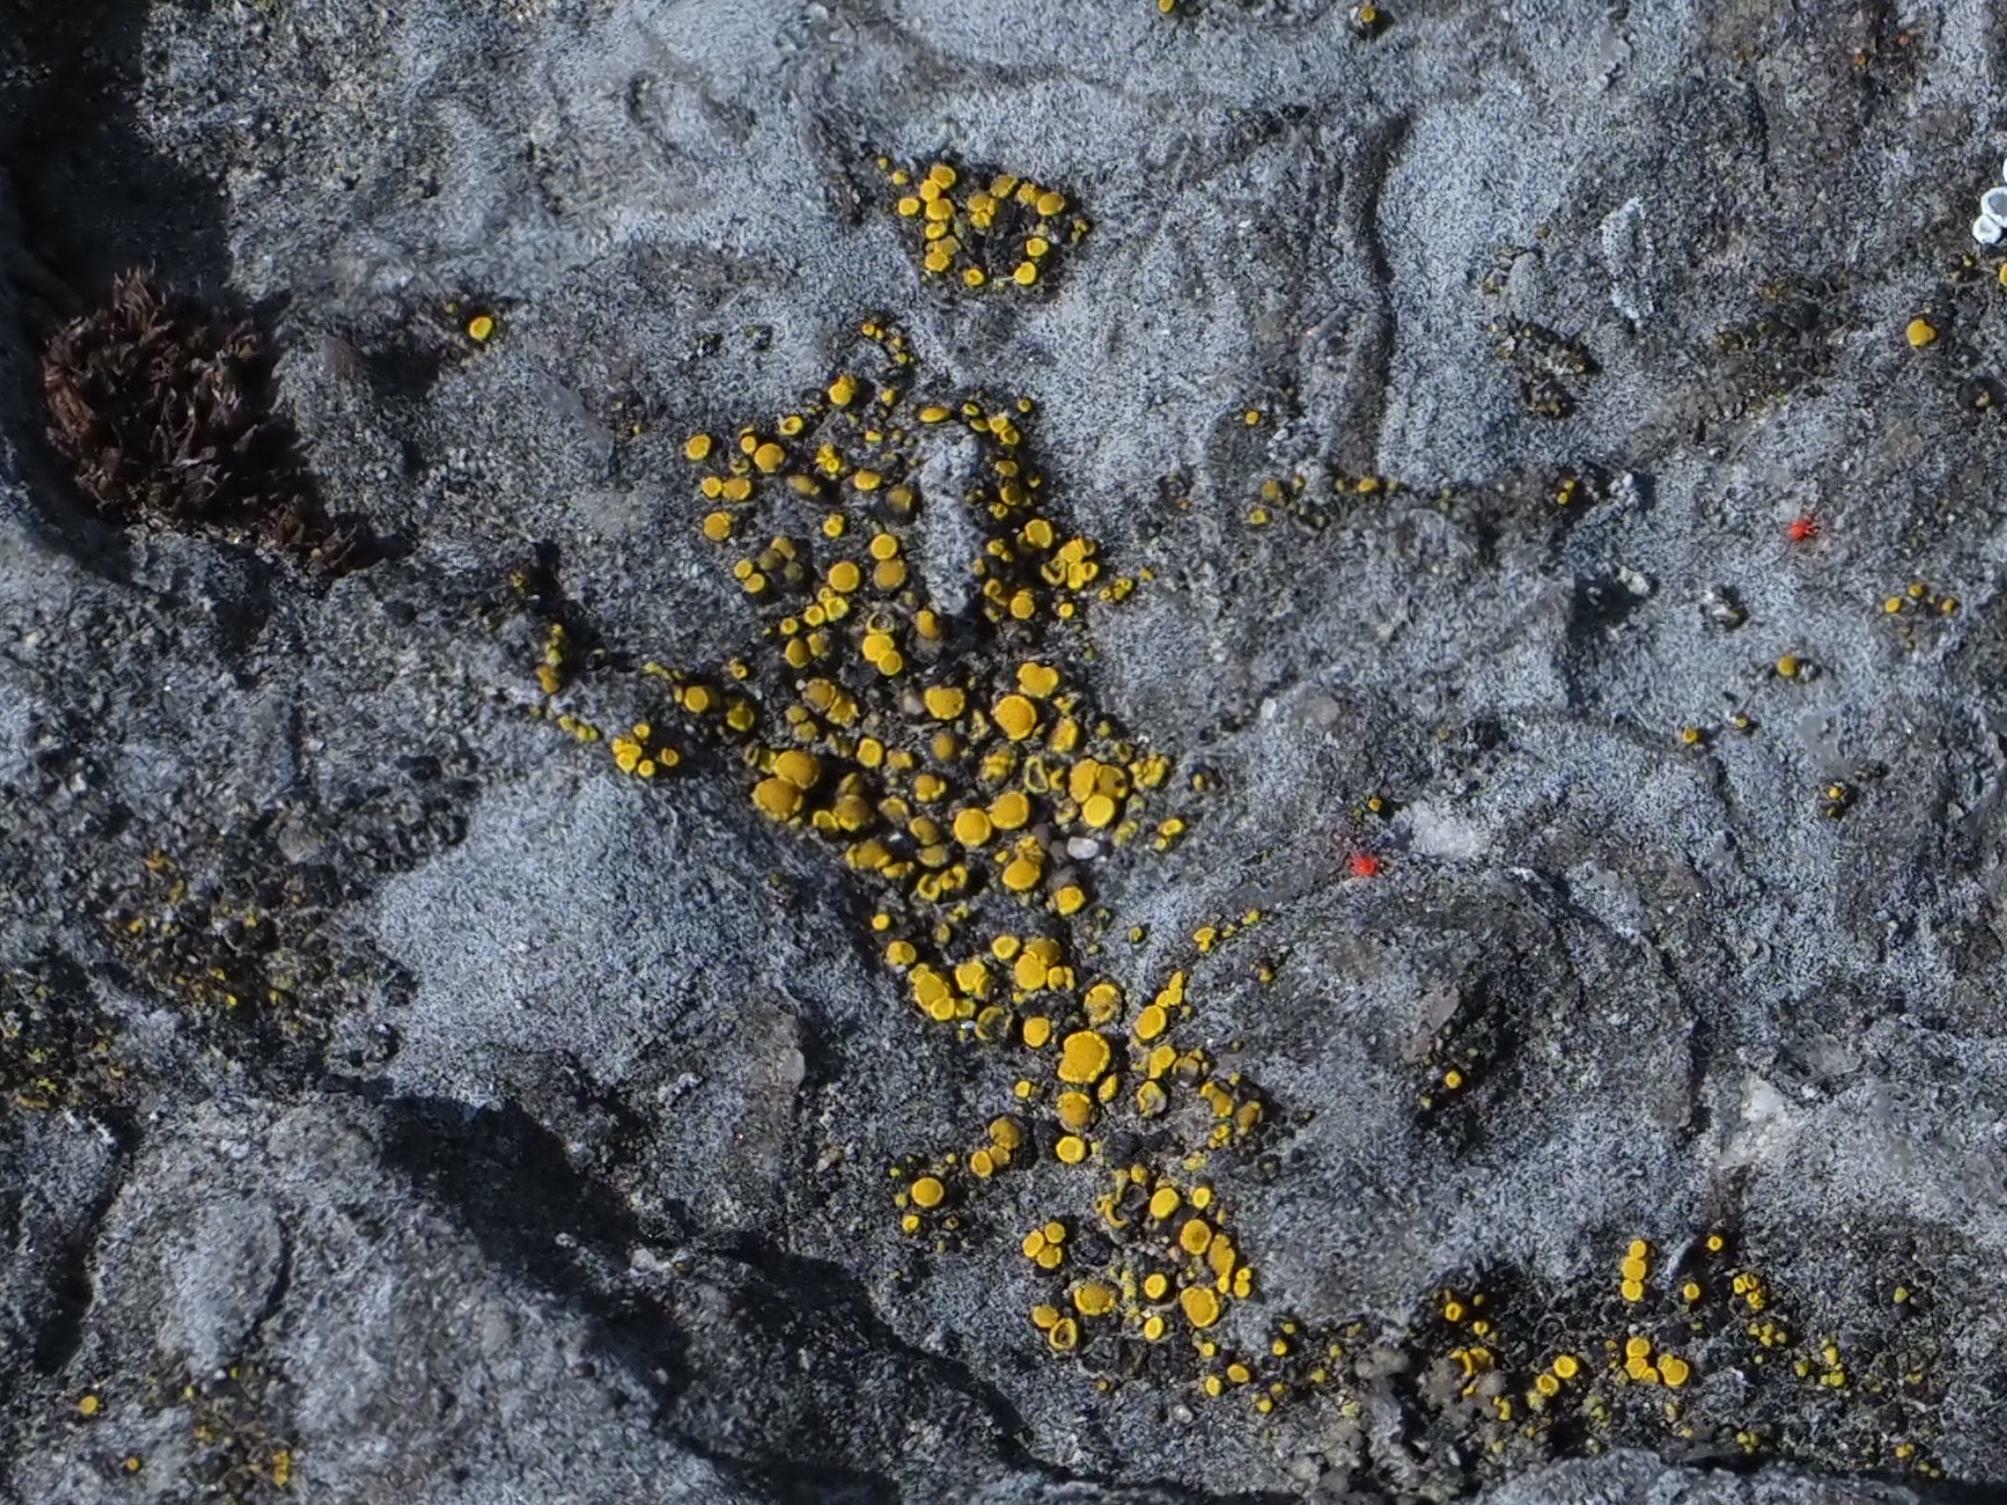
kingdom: Fungi
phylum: Ascomycota
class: Candelariomycetes
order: Candelariales
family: Candelariaceae
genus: Candelariella
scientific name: Candelariella aurella
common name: Hidden goldspeck lichen
